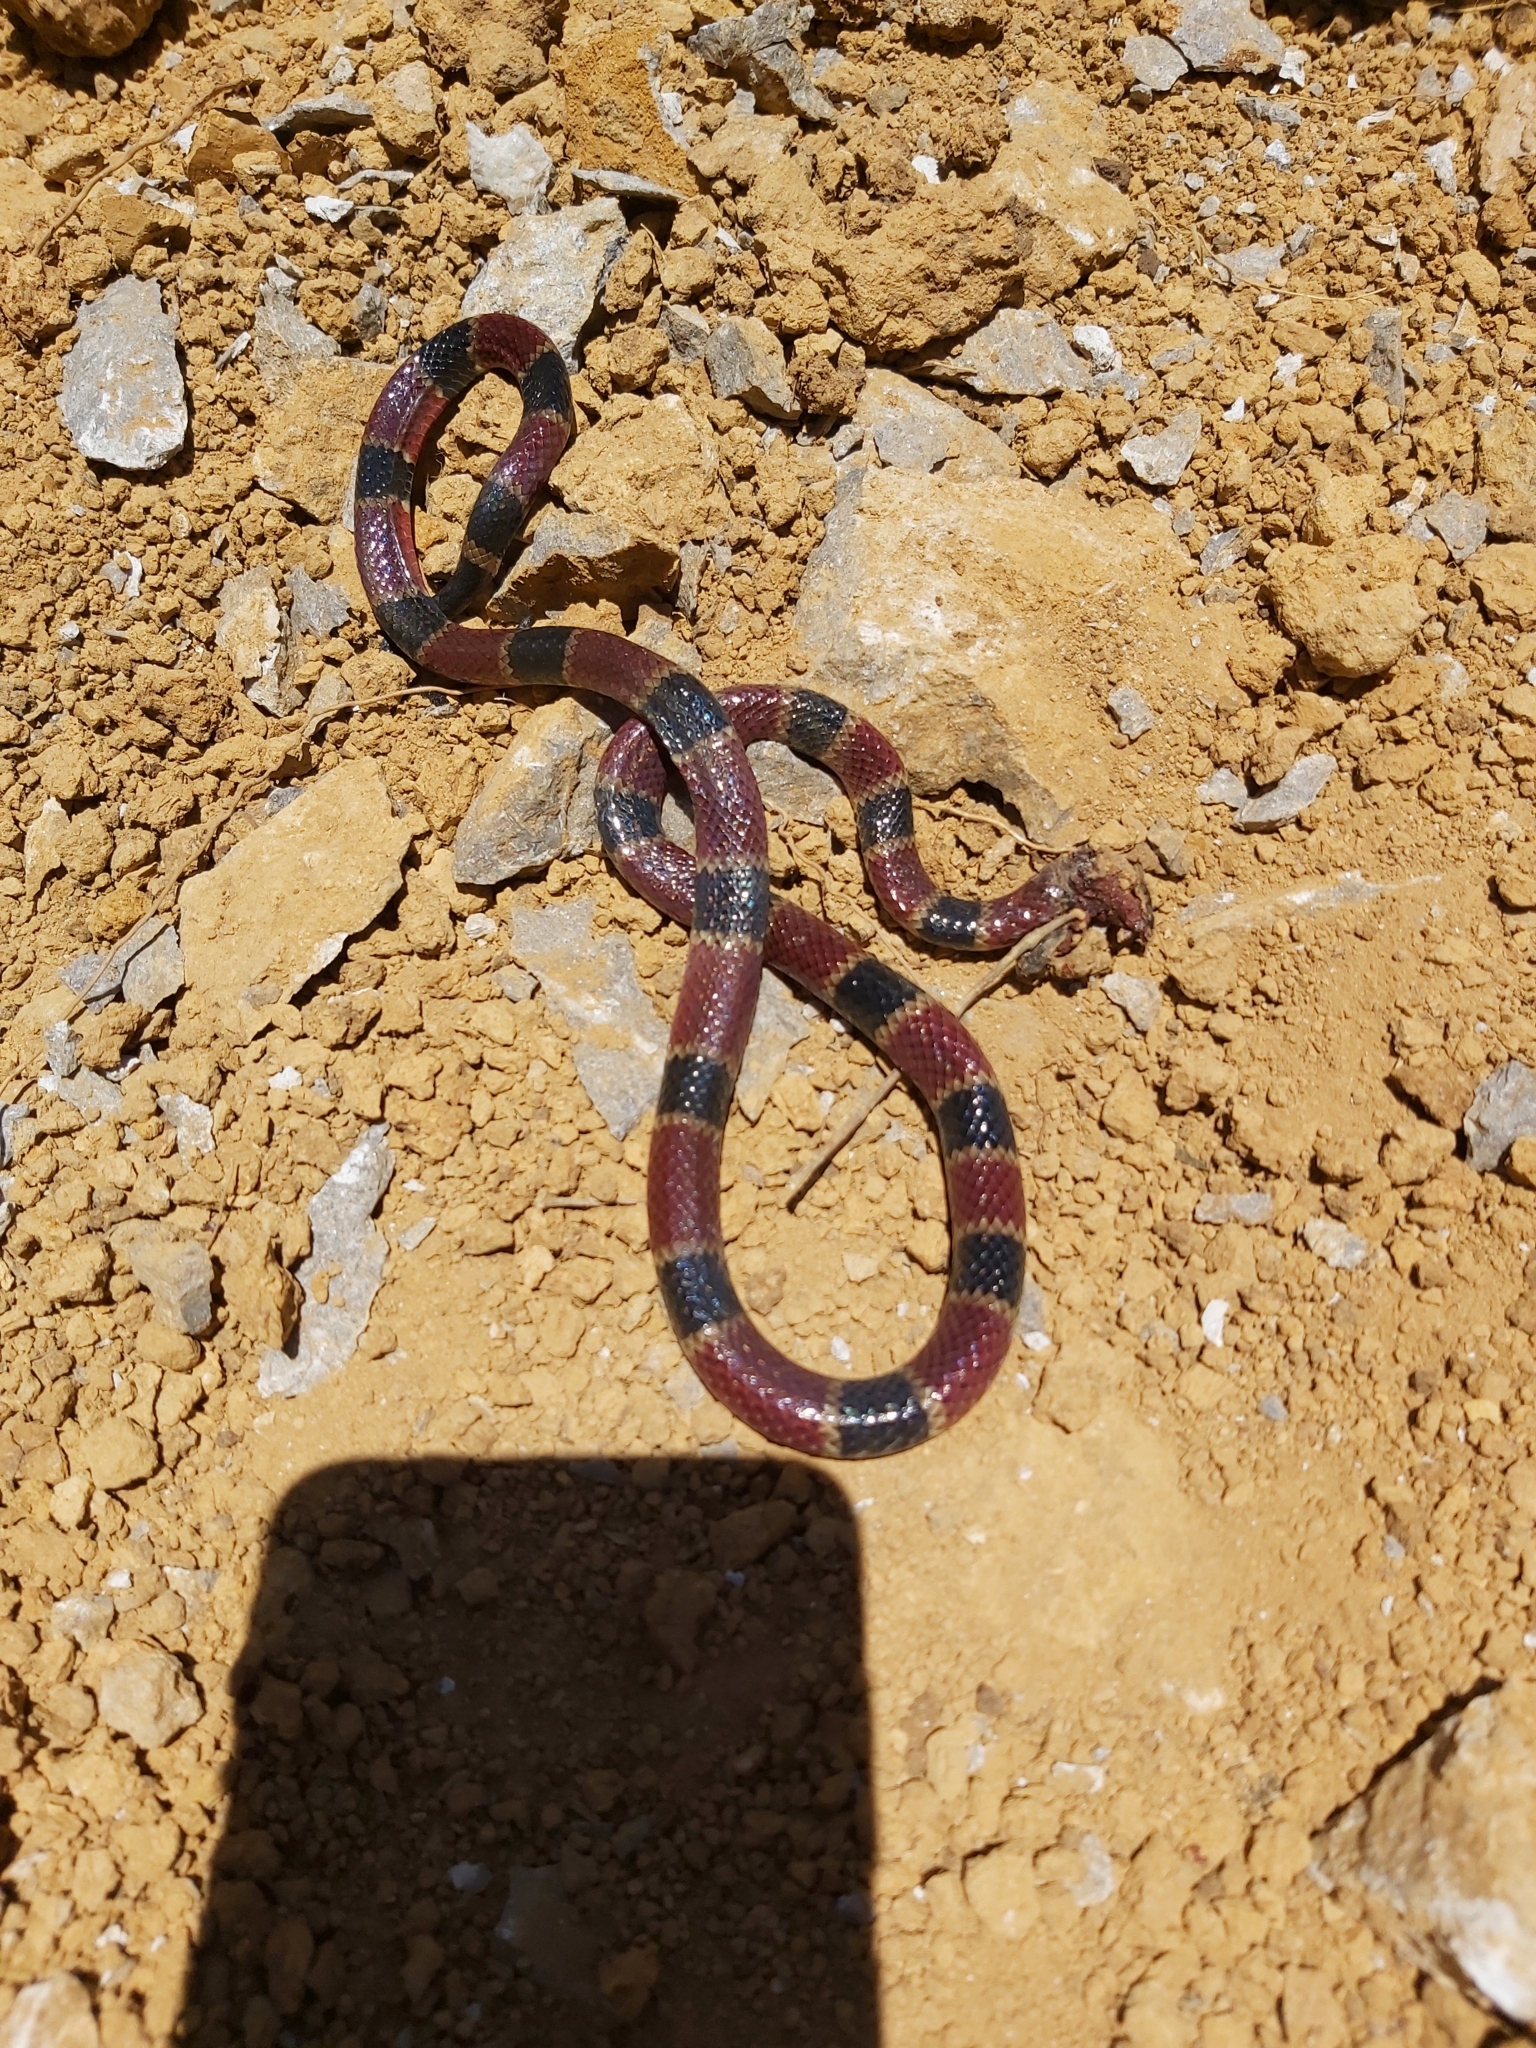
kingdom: Animalia
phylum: Chordata
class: Squamata
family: Elapidae
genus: Micrurus
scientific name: Micrurus nigrocinctus
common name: Babaspul [babaspul]
